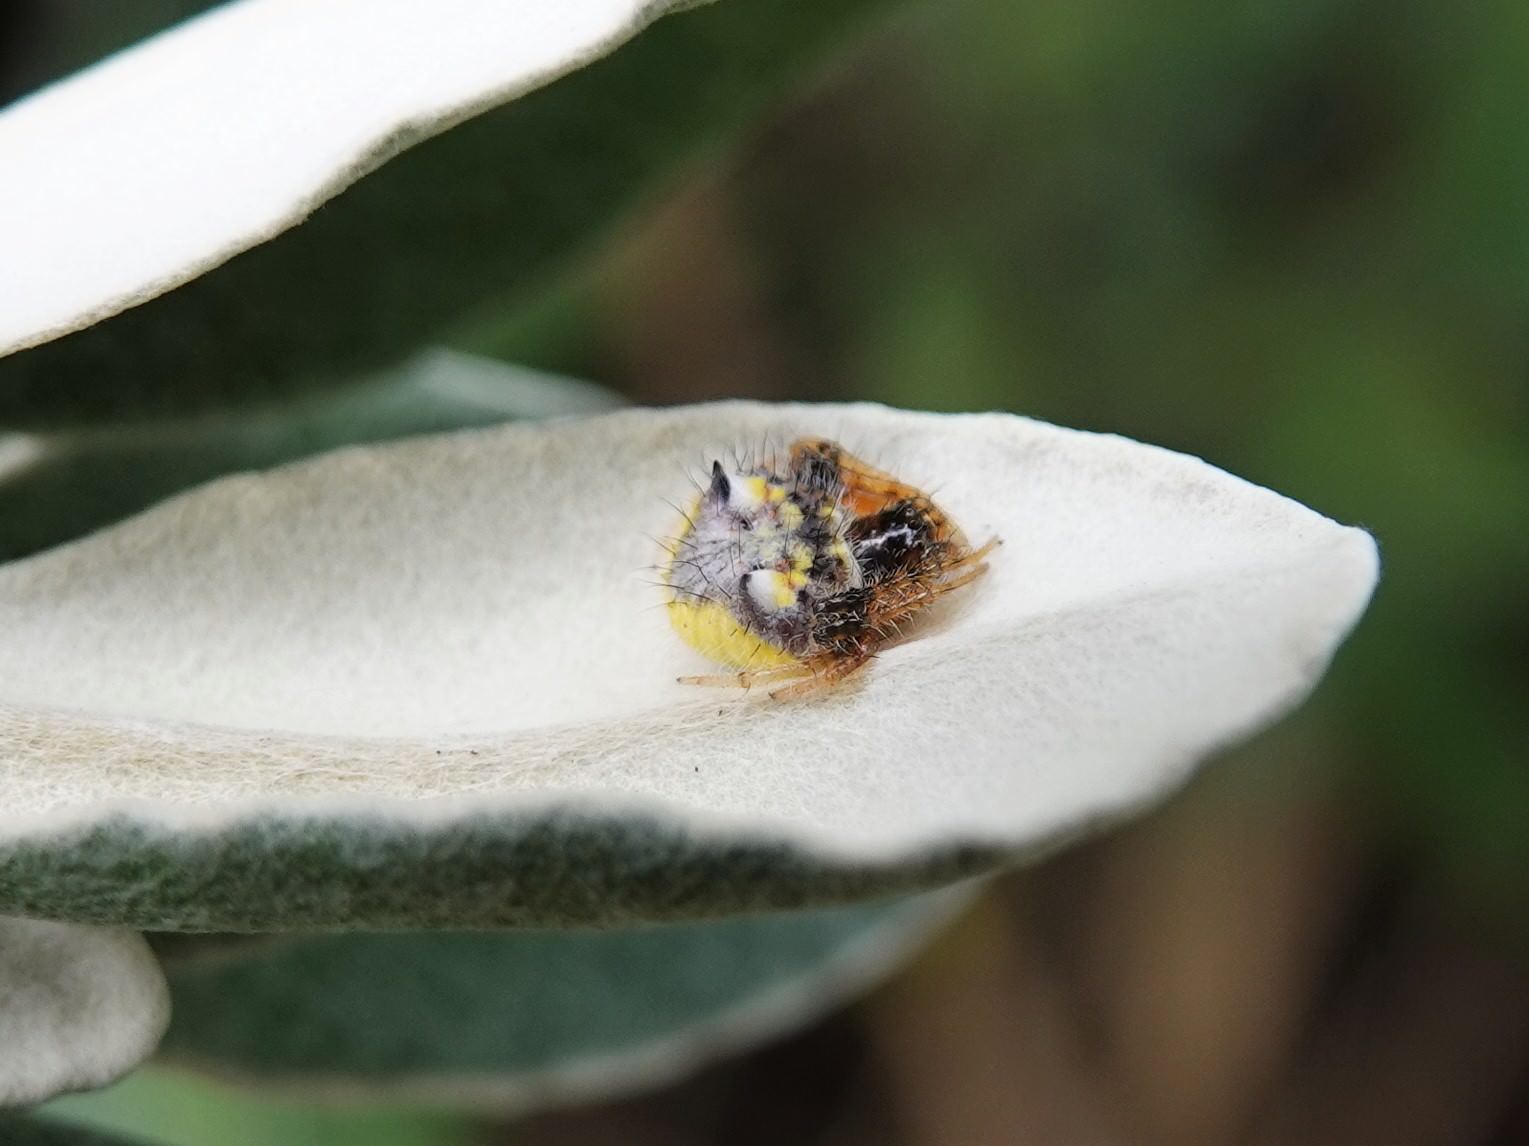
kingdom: Animalia
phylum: Arthropoda
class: Arachnida
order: Araneae
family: Araneidae
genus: Poecilopachys
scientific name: Poecilopachys australasia
